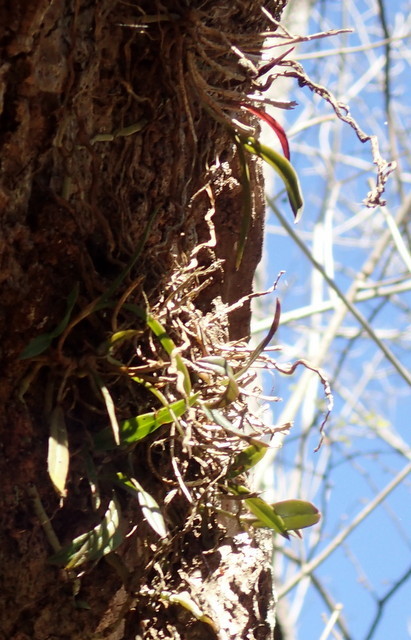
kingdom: Plantae
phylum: Tracheophyta
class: Liliopsida
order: Asparagales
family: Orchidaceae
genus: Epidendrum
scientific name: Epidendrum conopseum
